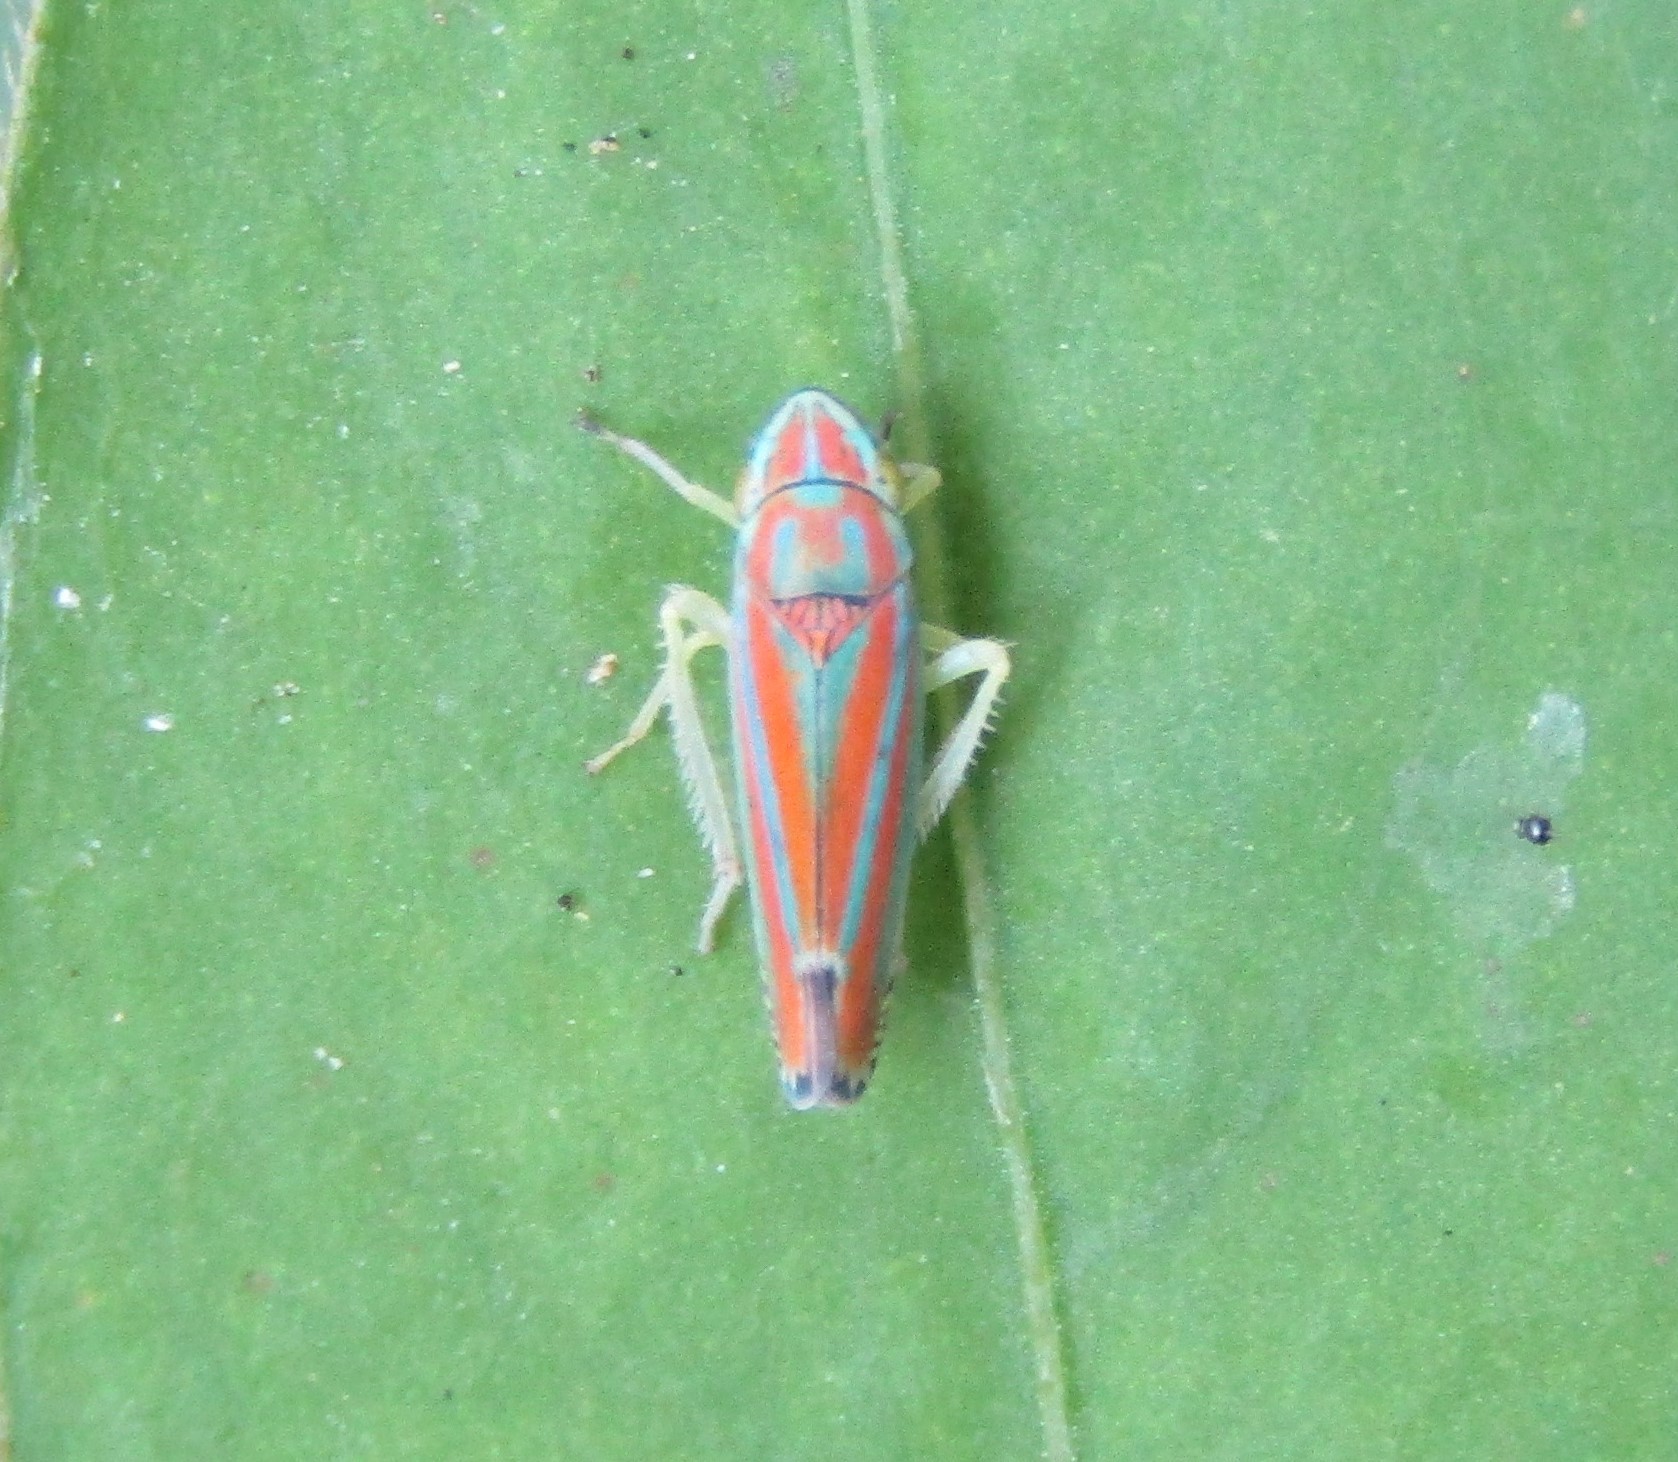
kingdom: Animalia
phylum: Arthropoda
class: Insecta
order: Hemiptera
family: Cicadellidae
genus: Graphocephala
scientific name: Graphocephala versuta
